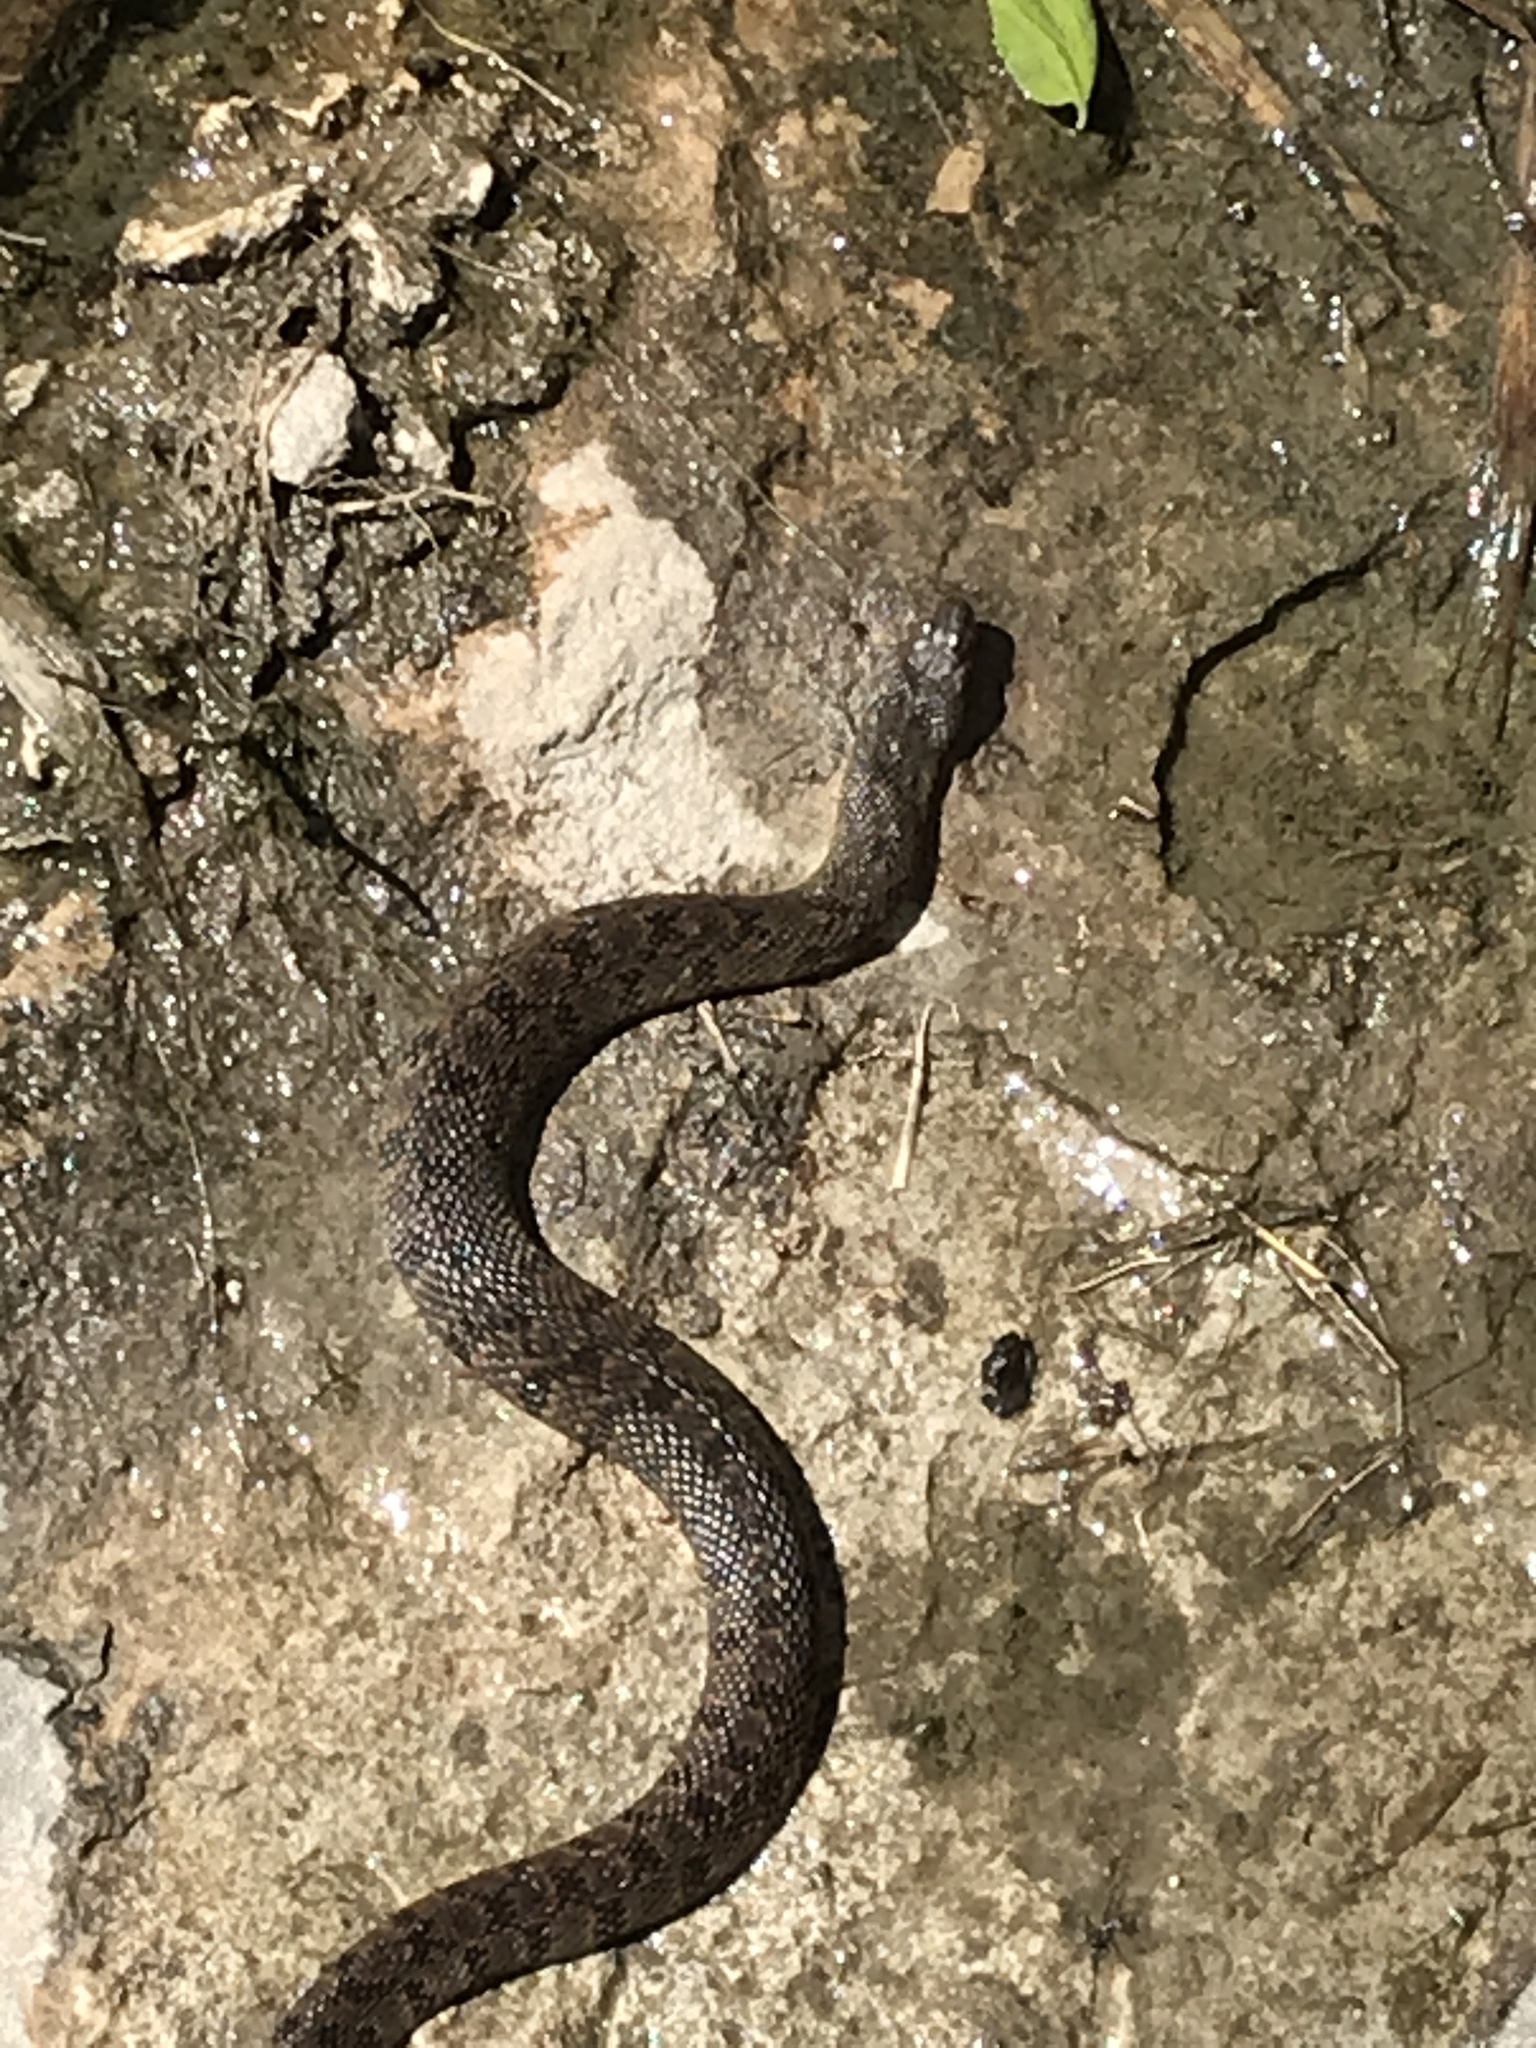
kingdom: Animalia
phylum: Chordata
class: Squamata
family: Colubridae
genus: Nerodia
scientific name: Nerodia rhombifer
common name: Diamondback water snake
